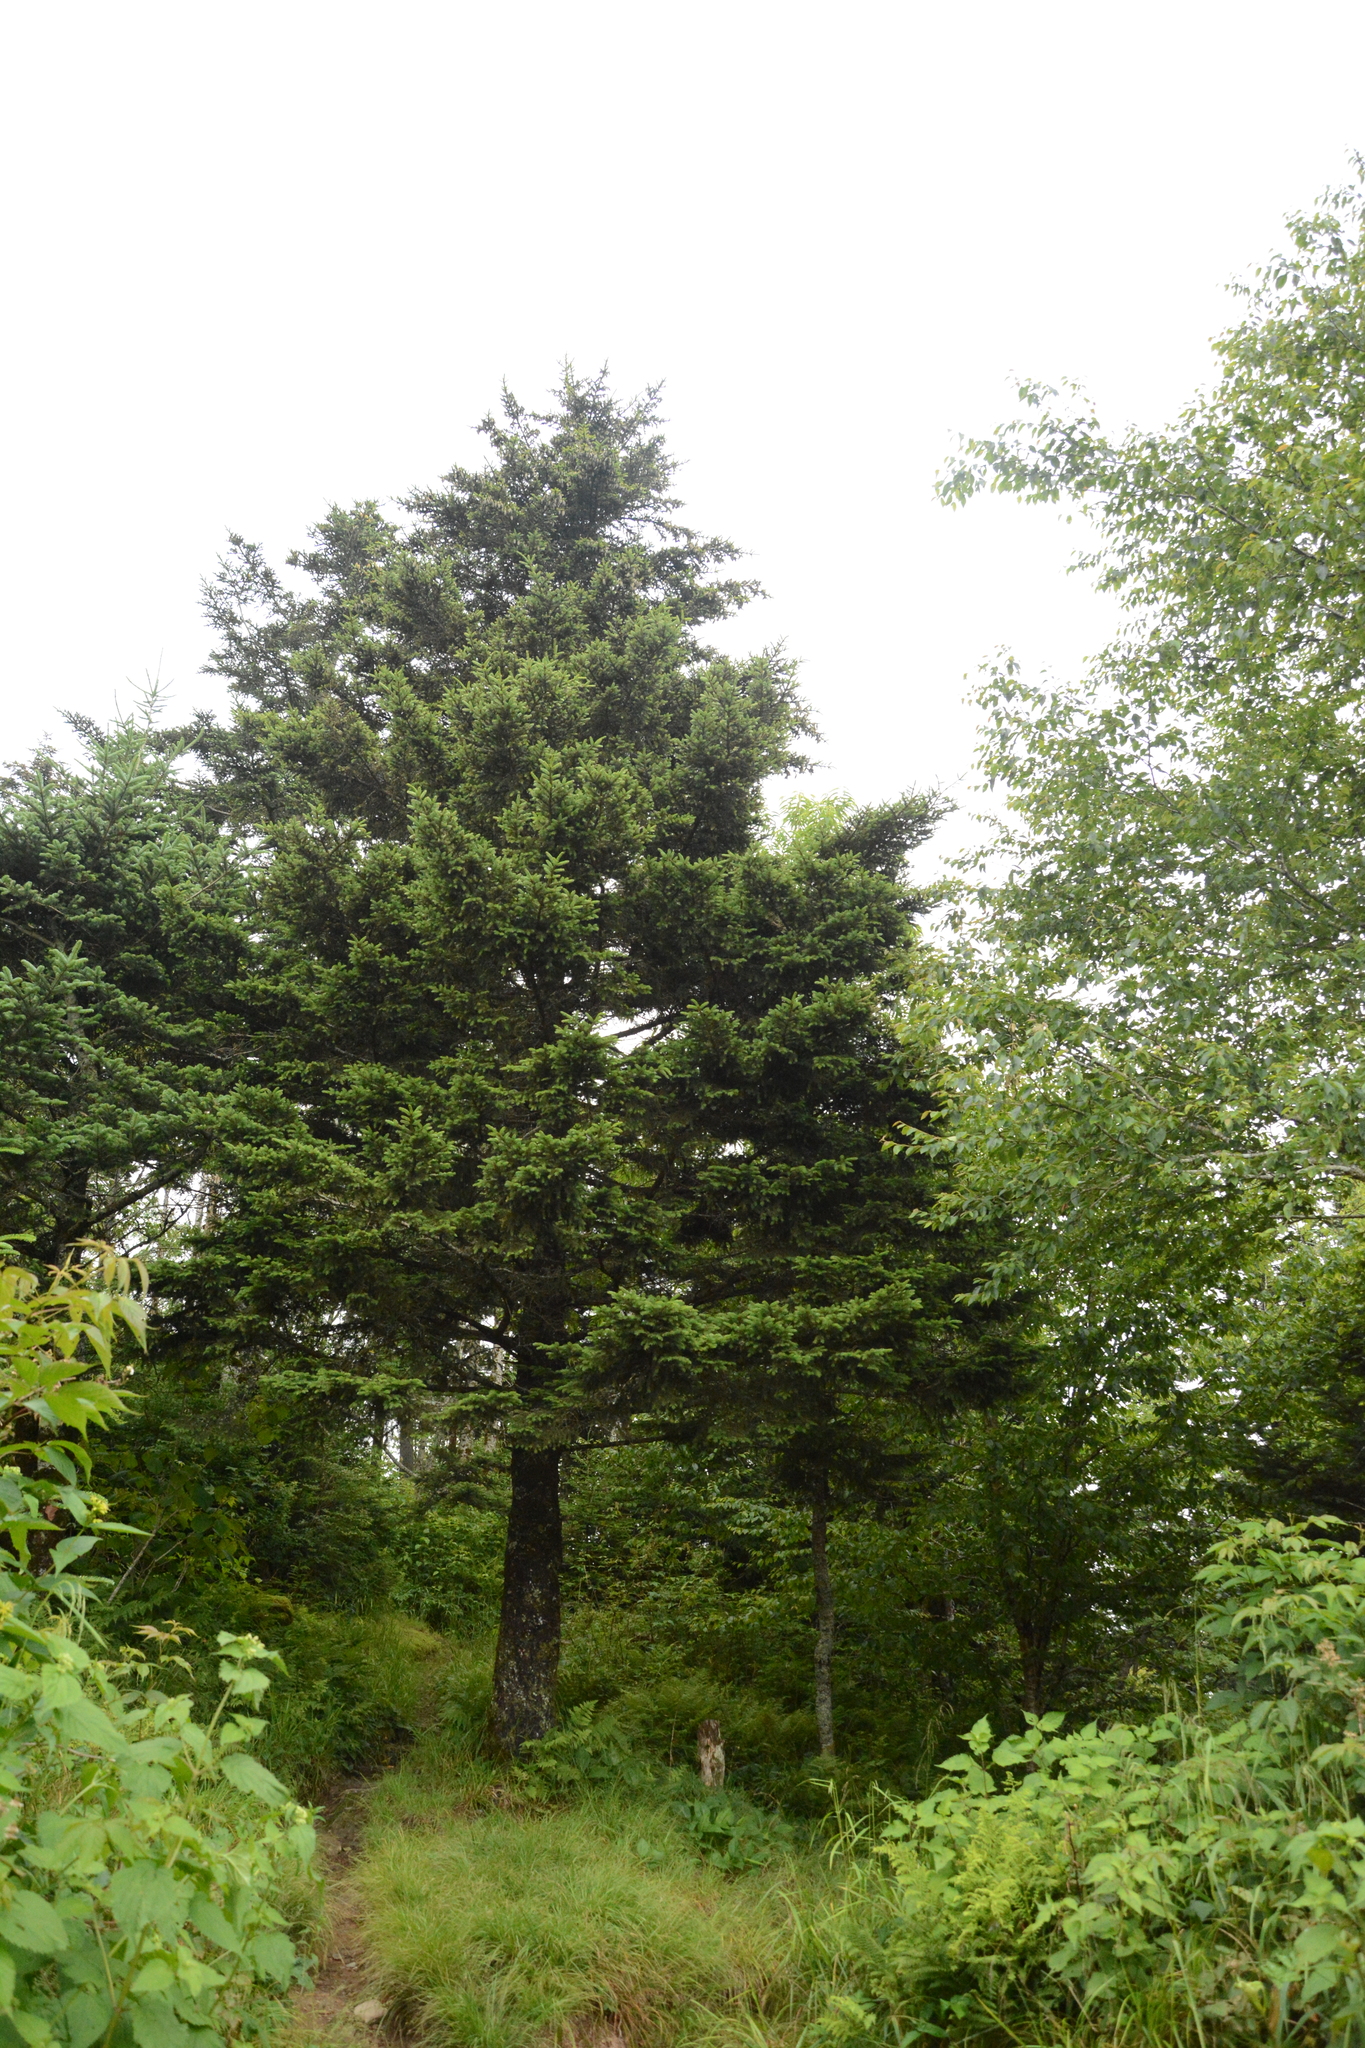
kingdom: Plantae
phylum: Tracheophyta
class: Pinopsida
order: Pinales
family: Pinaceae
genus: Abies
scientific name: Abies fraseri
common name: Fraser fir
